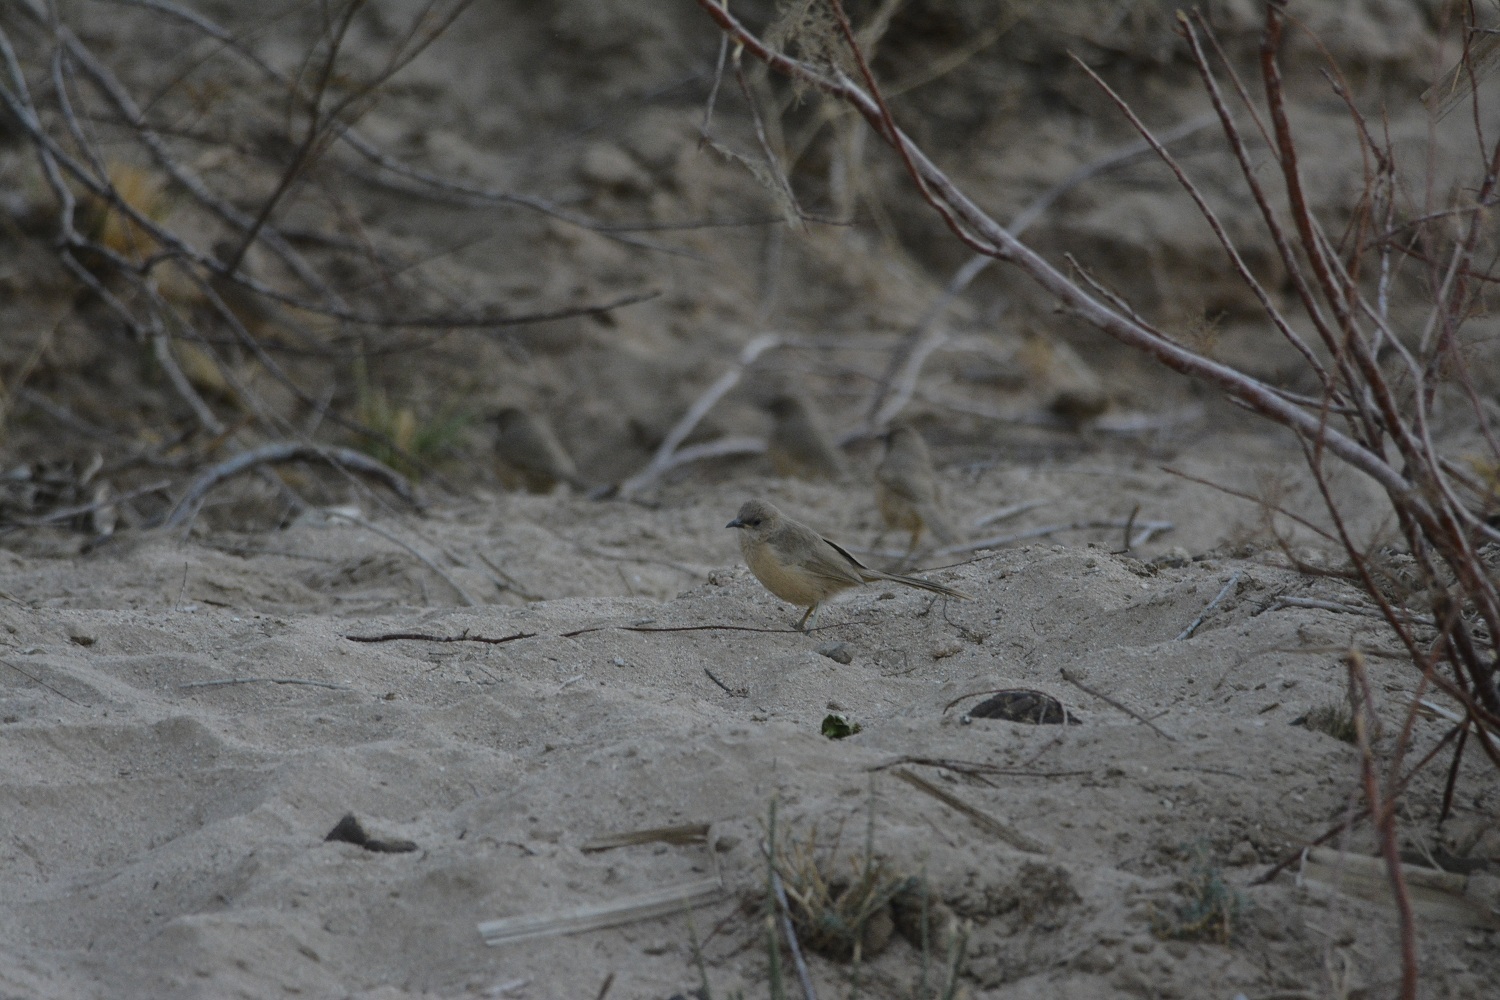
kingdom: Animalia
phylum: Chordata
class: Aves
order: Passeriformes
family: Leiothrichidae
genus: Turdoides
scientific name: Turdoides fulva
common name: Fulvous babbler
